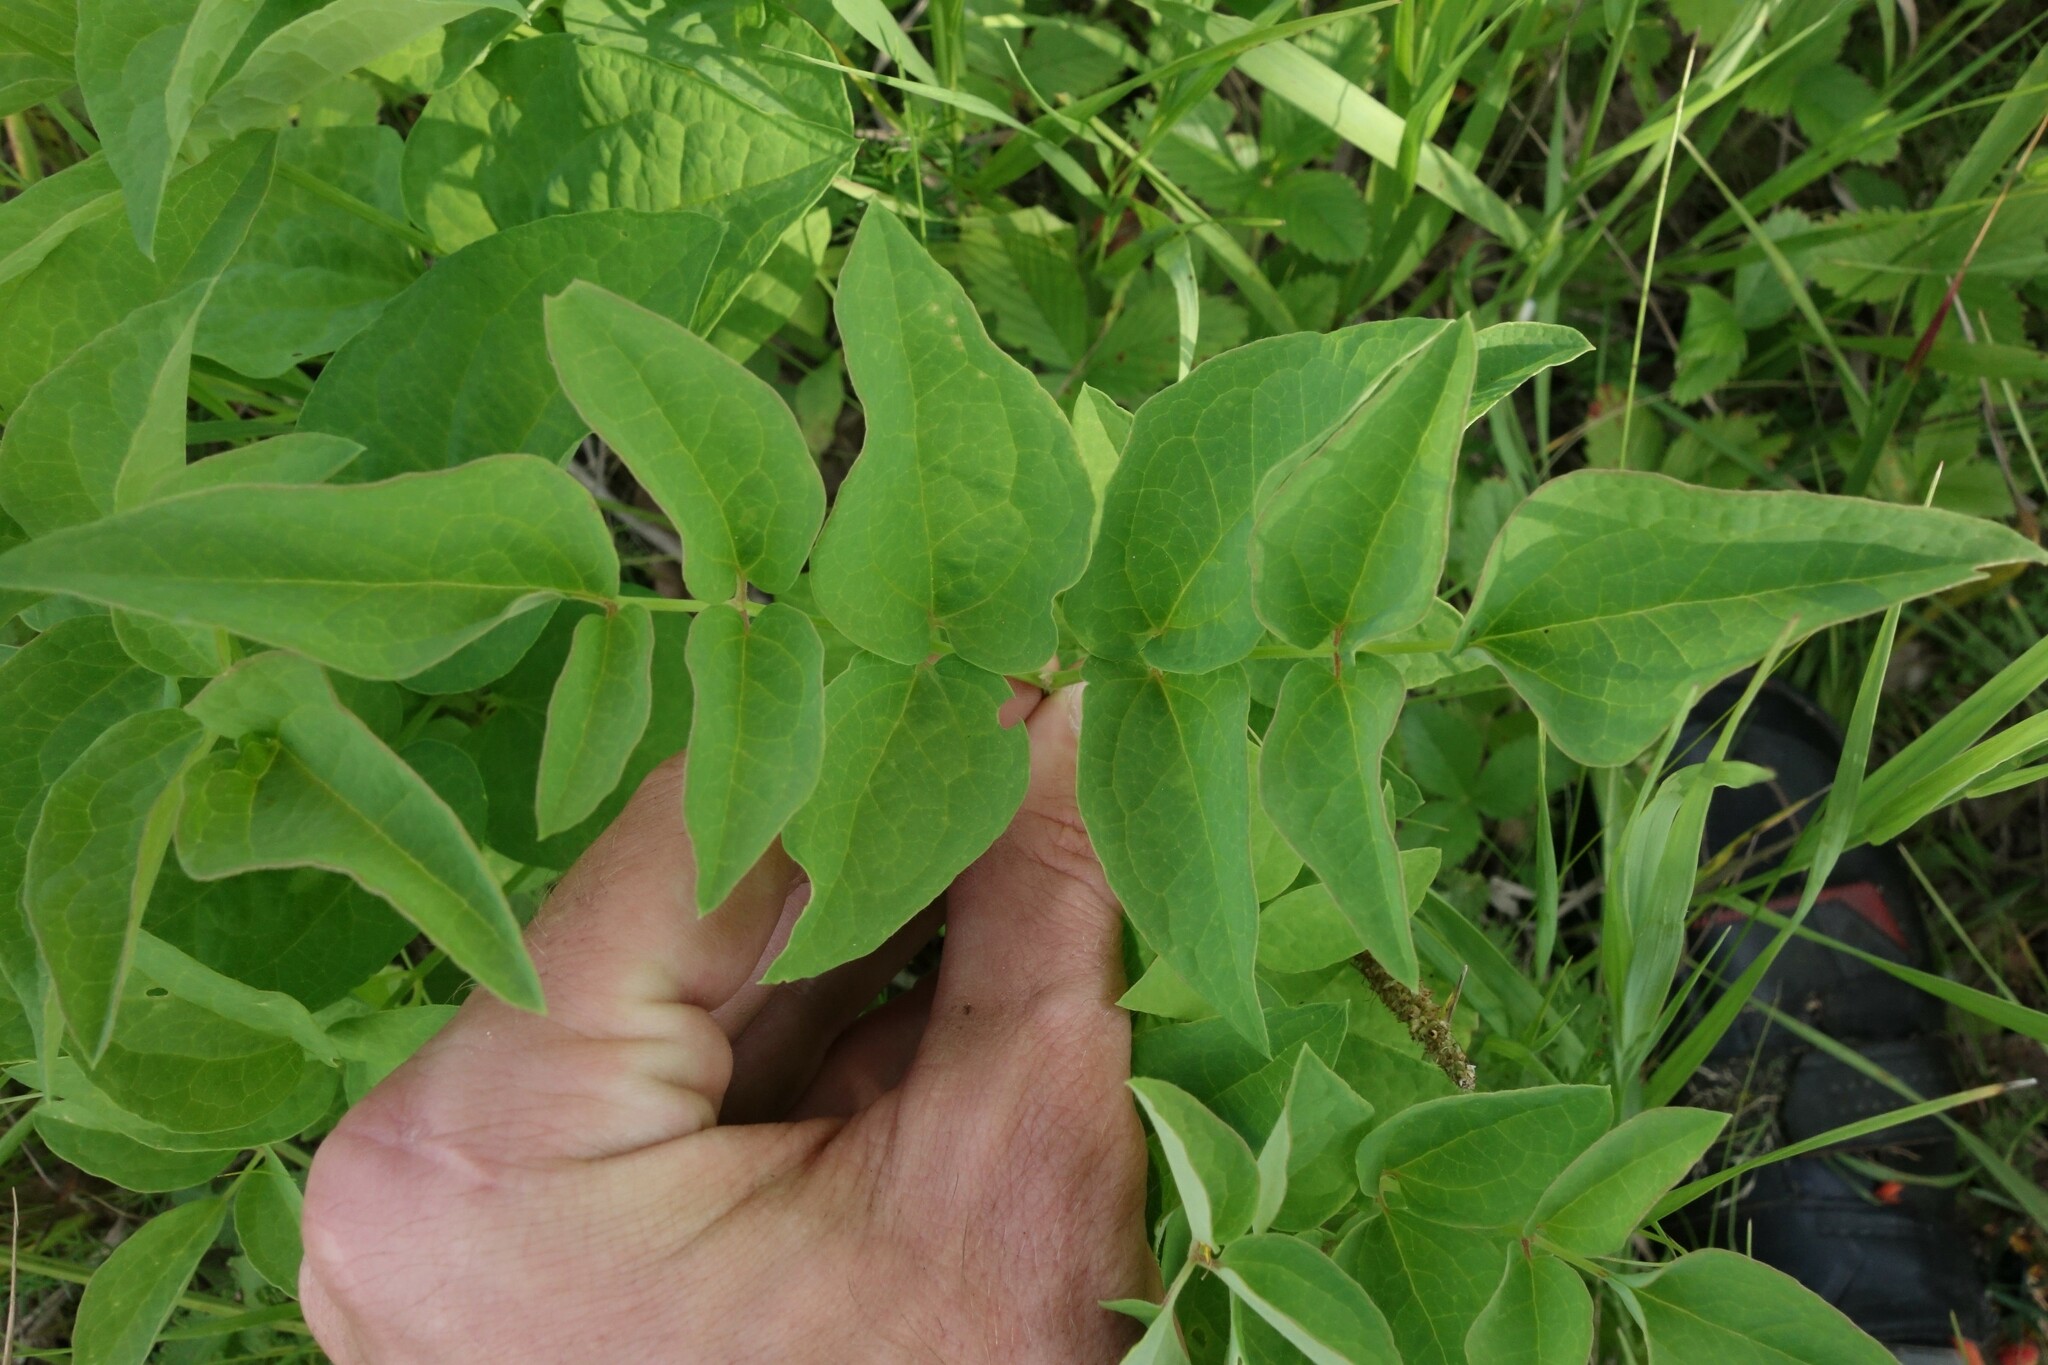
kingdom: Plantae
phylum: Tracheophyta
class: Magnoliopsida
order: Ranunculales
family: Ranunculaceae
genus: Clematis
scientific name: Clematis recta
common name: Ground clematis
